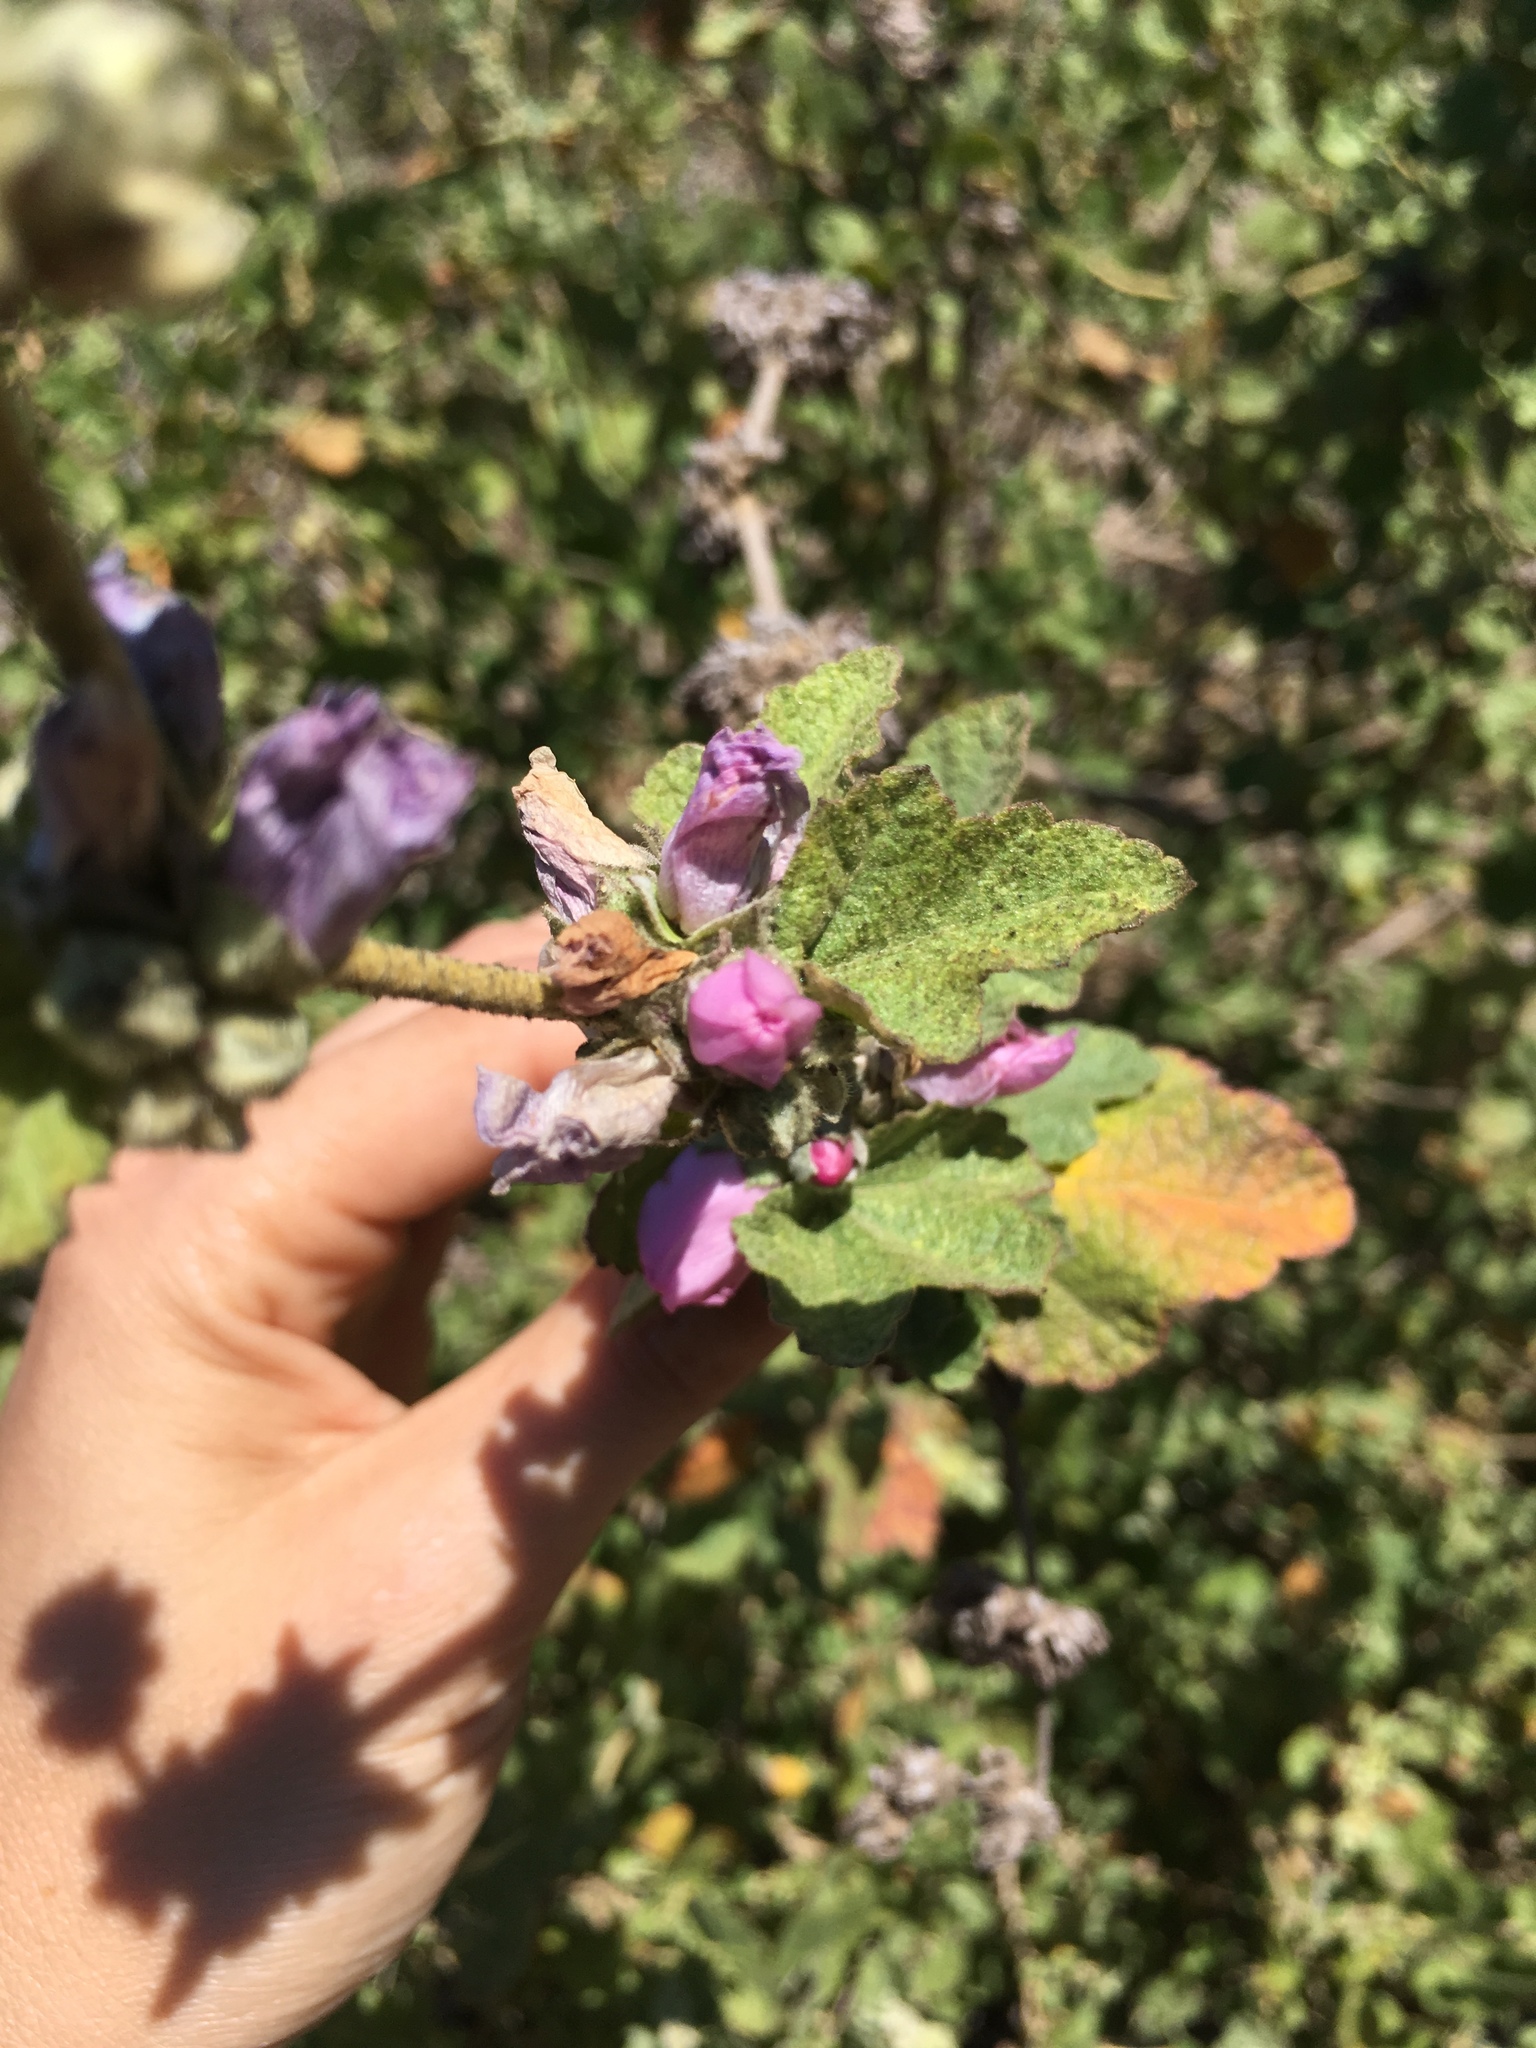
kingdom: Plantae
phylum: Tracheophyta
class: Magnoliopsida
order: Malvales
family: Malvaceae
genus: Malacothamnus
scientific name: Malacothamnus fasciculatus
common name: Sant cruz island bush-mallow
